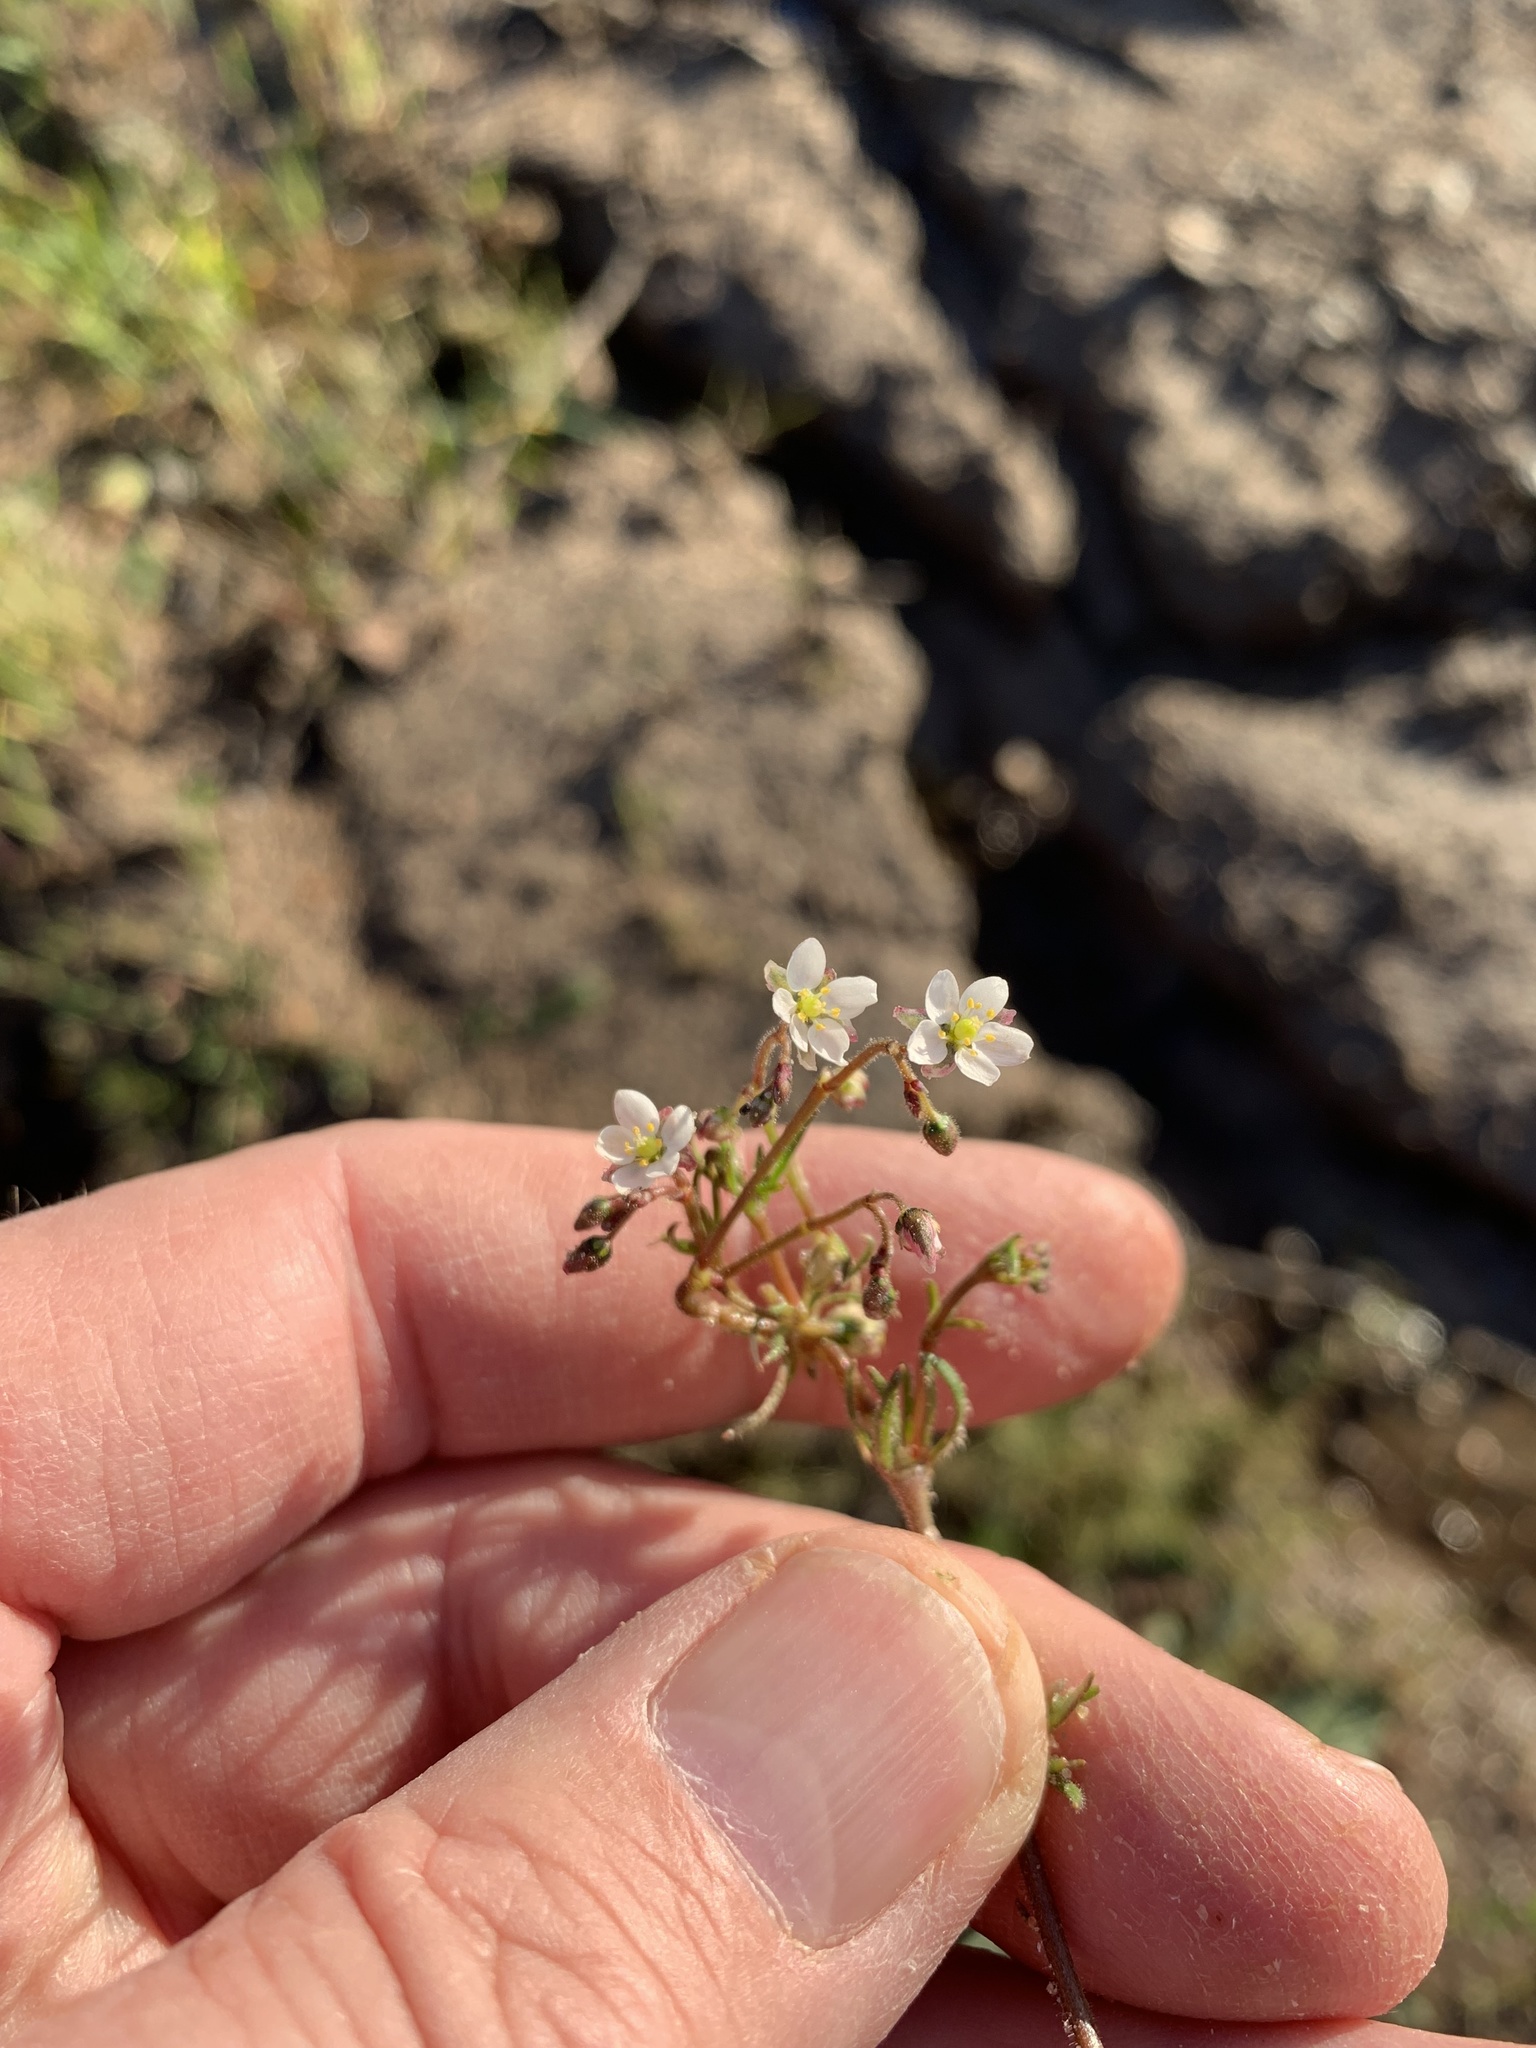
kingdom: Plantae
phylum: Tracheophyta
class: Magnoliopsida
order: Caryophyllales
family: Caryophyllaceae
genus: Spergula
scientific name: Spergula arvensis
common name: Corn spurrey
